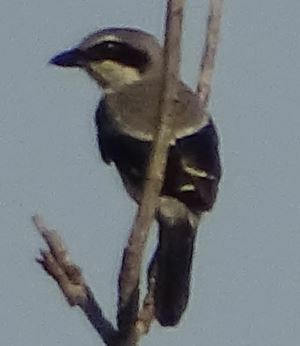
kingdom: Animalia
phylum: Chordata
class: Aves
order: Passeriformes
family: Laniidae
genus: Lanius
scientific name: Lanius meridionalis
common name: Iberian grey shrike
